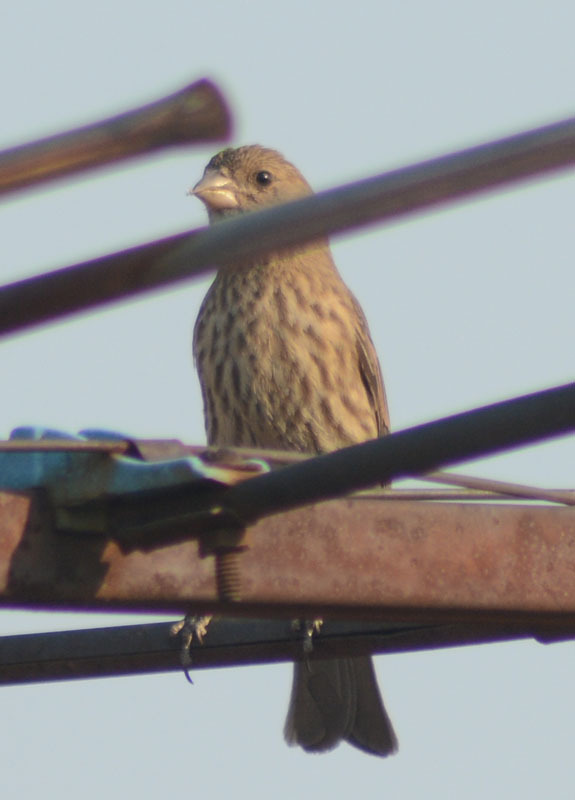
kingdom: Animalia
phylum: Chordata
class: Aves
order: Passeriformes
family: Fringillidae
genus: Haemorhous
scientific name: Haemorhous mexicanus
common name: House finch
